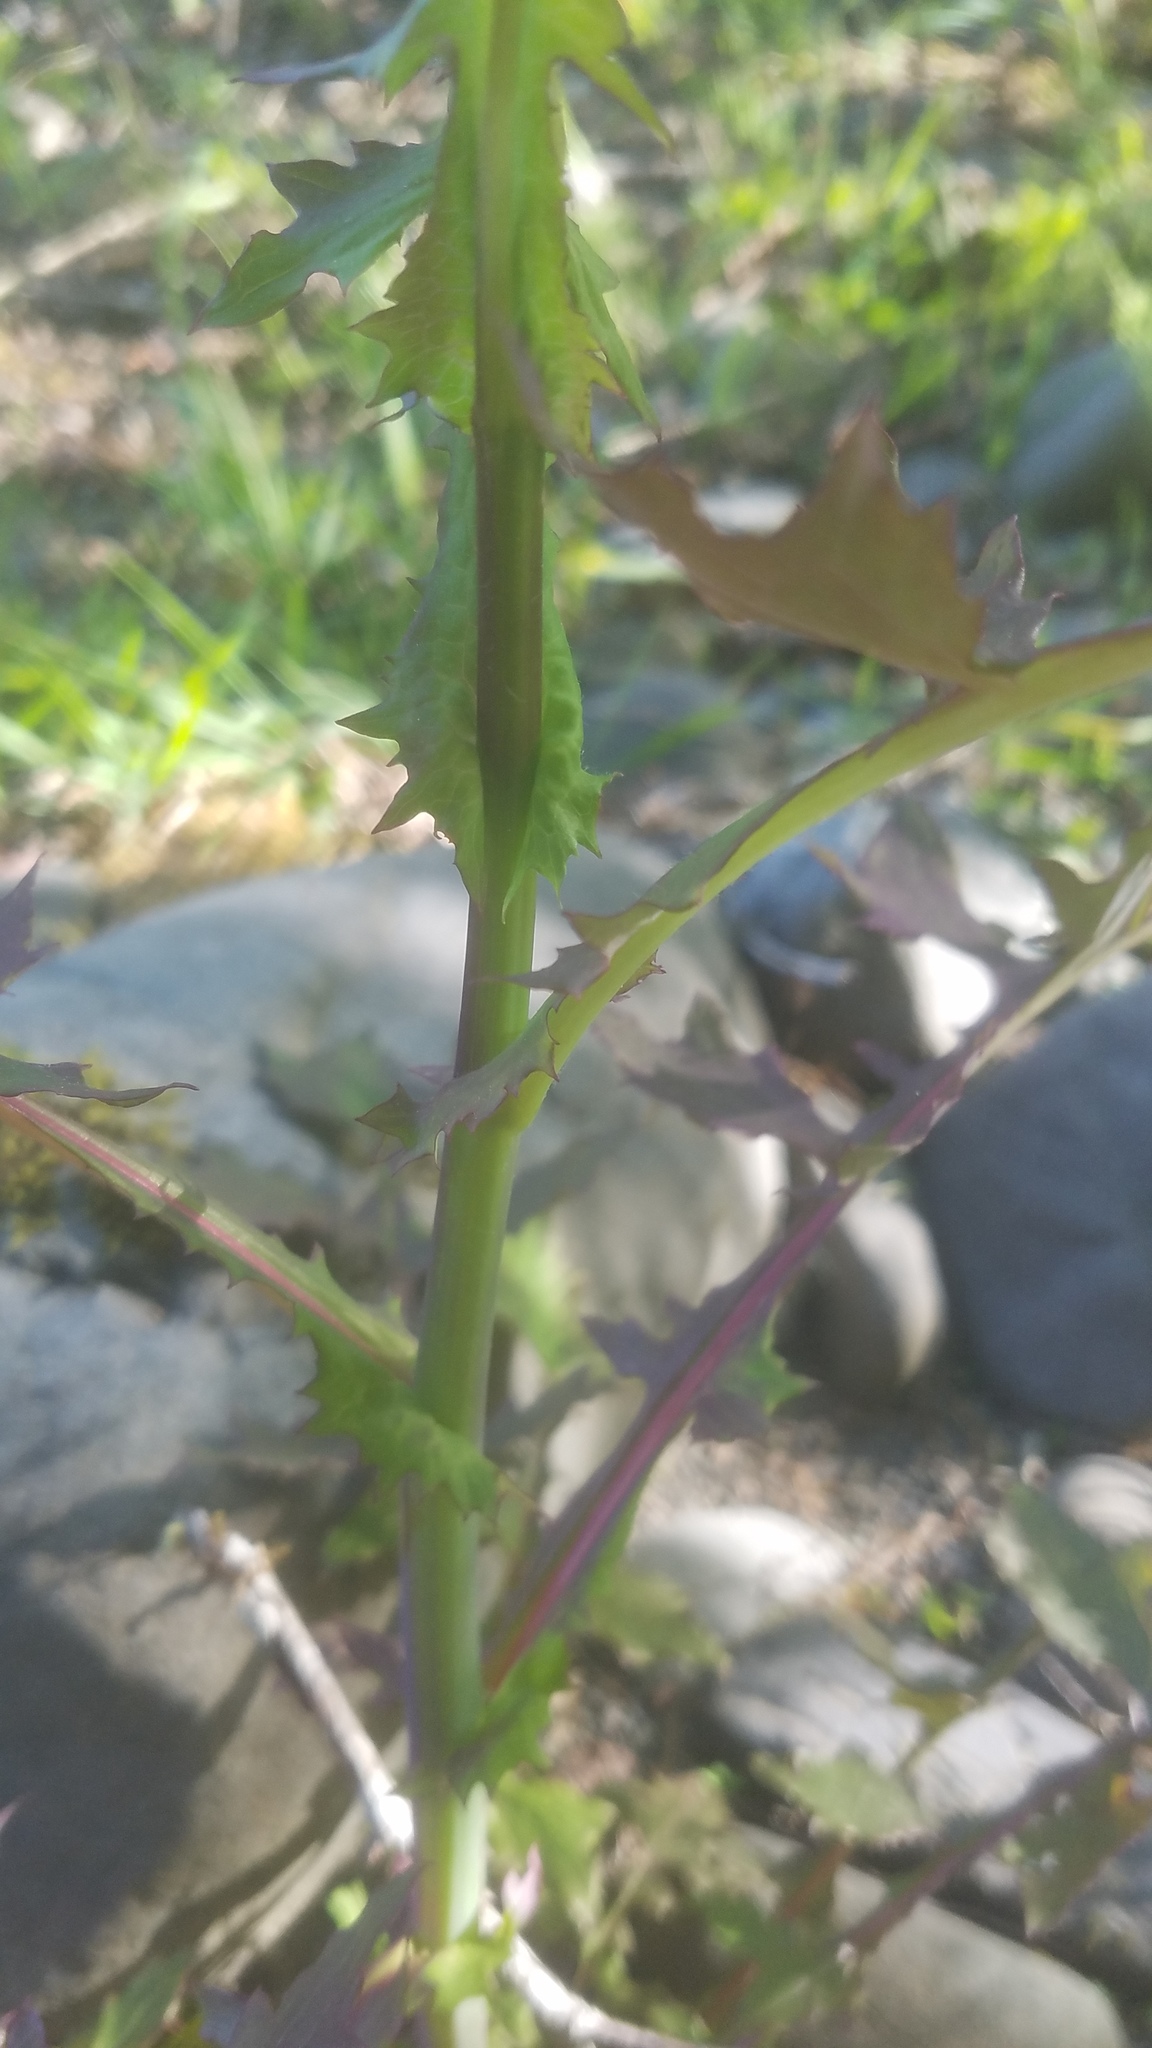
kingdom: Plantae
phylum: Tracheophyta
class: Magnoliopsida
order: Asterales
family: Asteraceae
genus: Mycelis
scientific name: Mycelis muralis
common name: Wall lettuce
